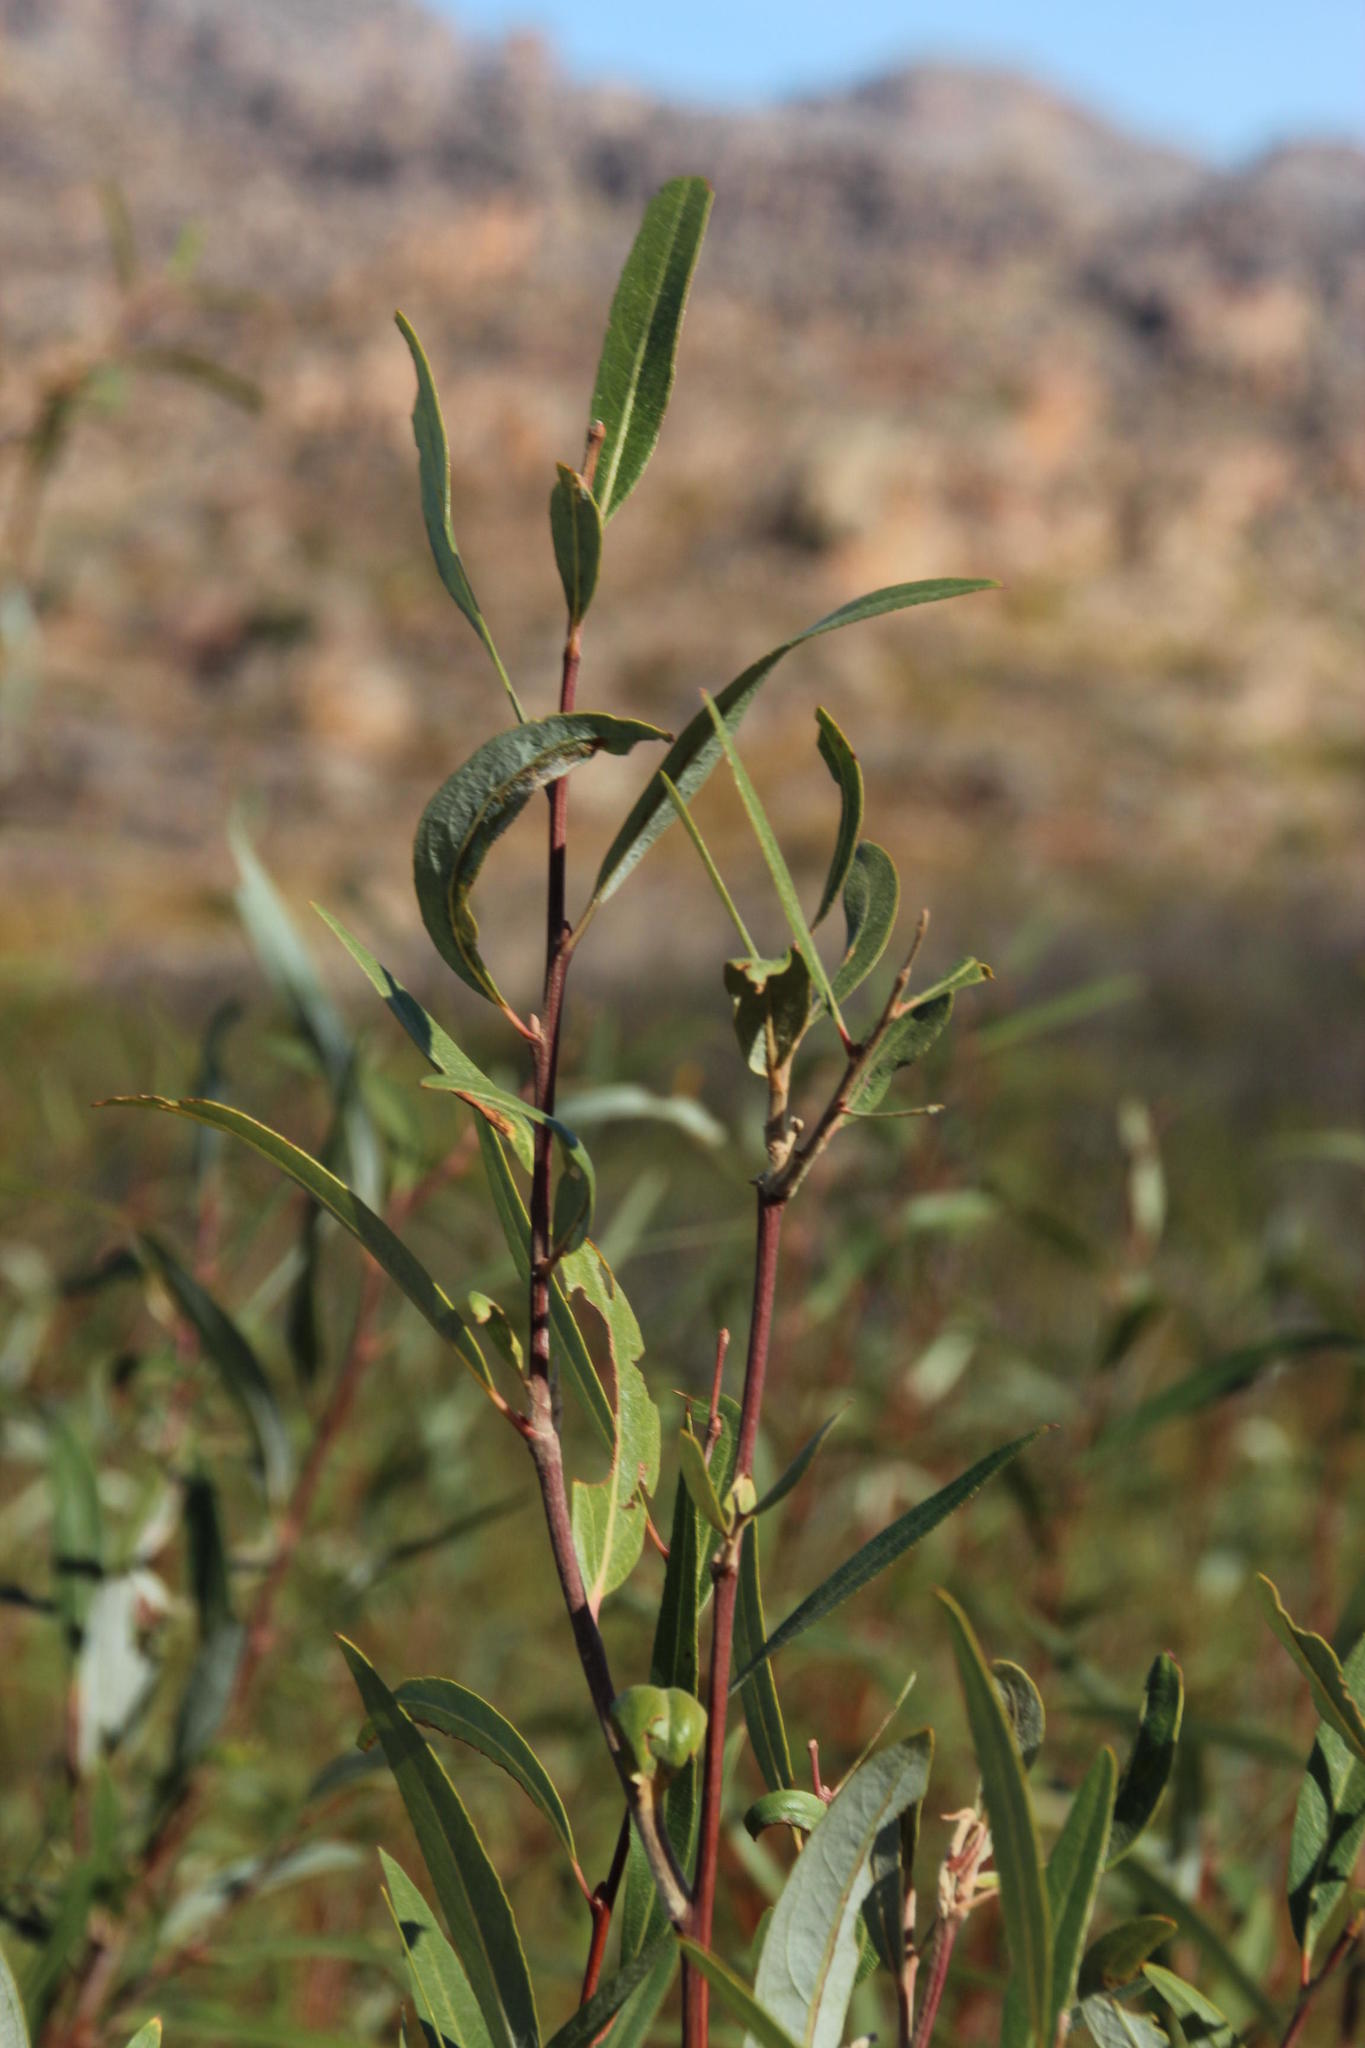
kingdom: Plantae
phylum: Tracheophyta
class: Magnoliopsida
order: Malpighiales
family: Salicaceae
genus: Salix
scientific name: Salix mucronata
